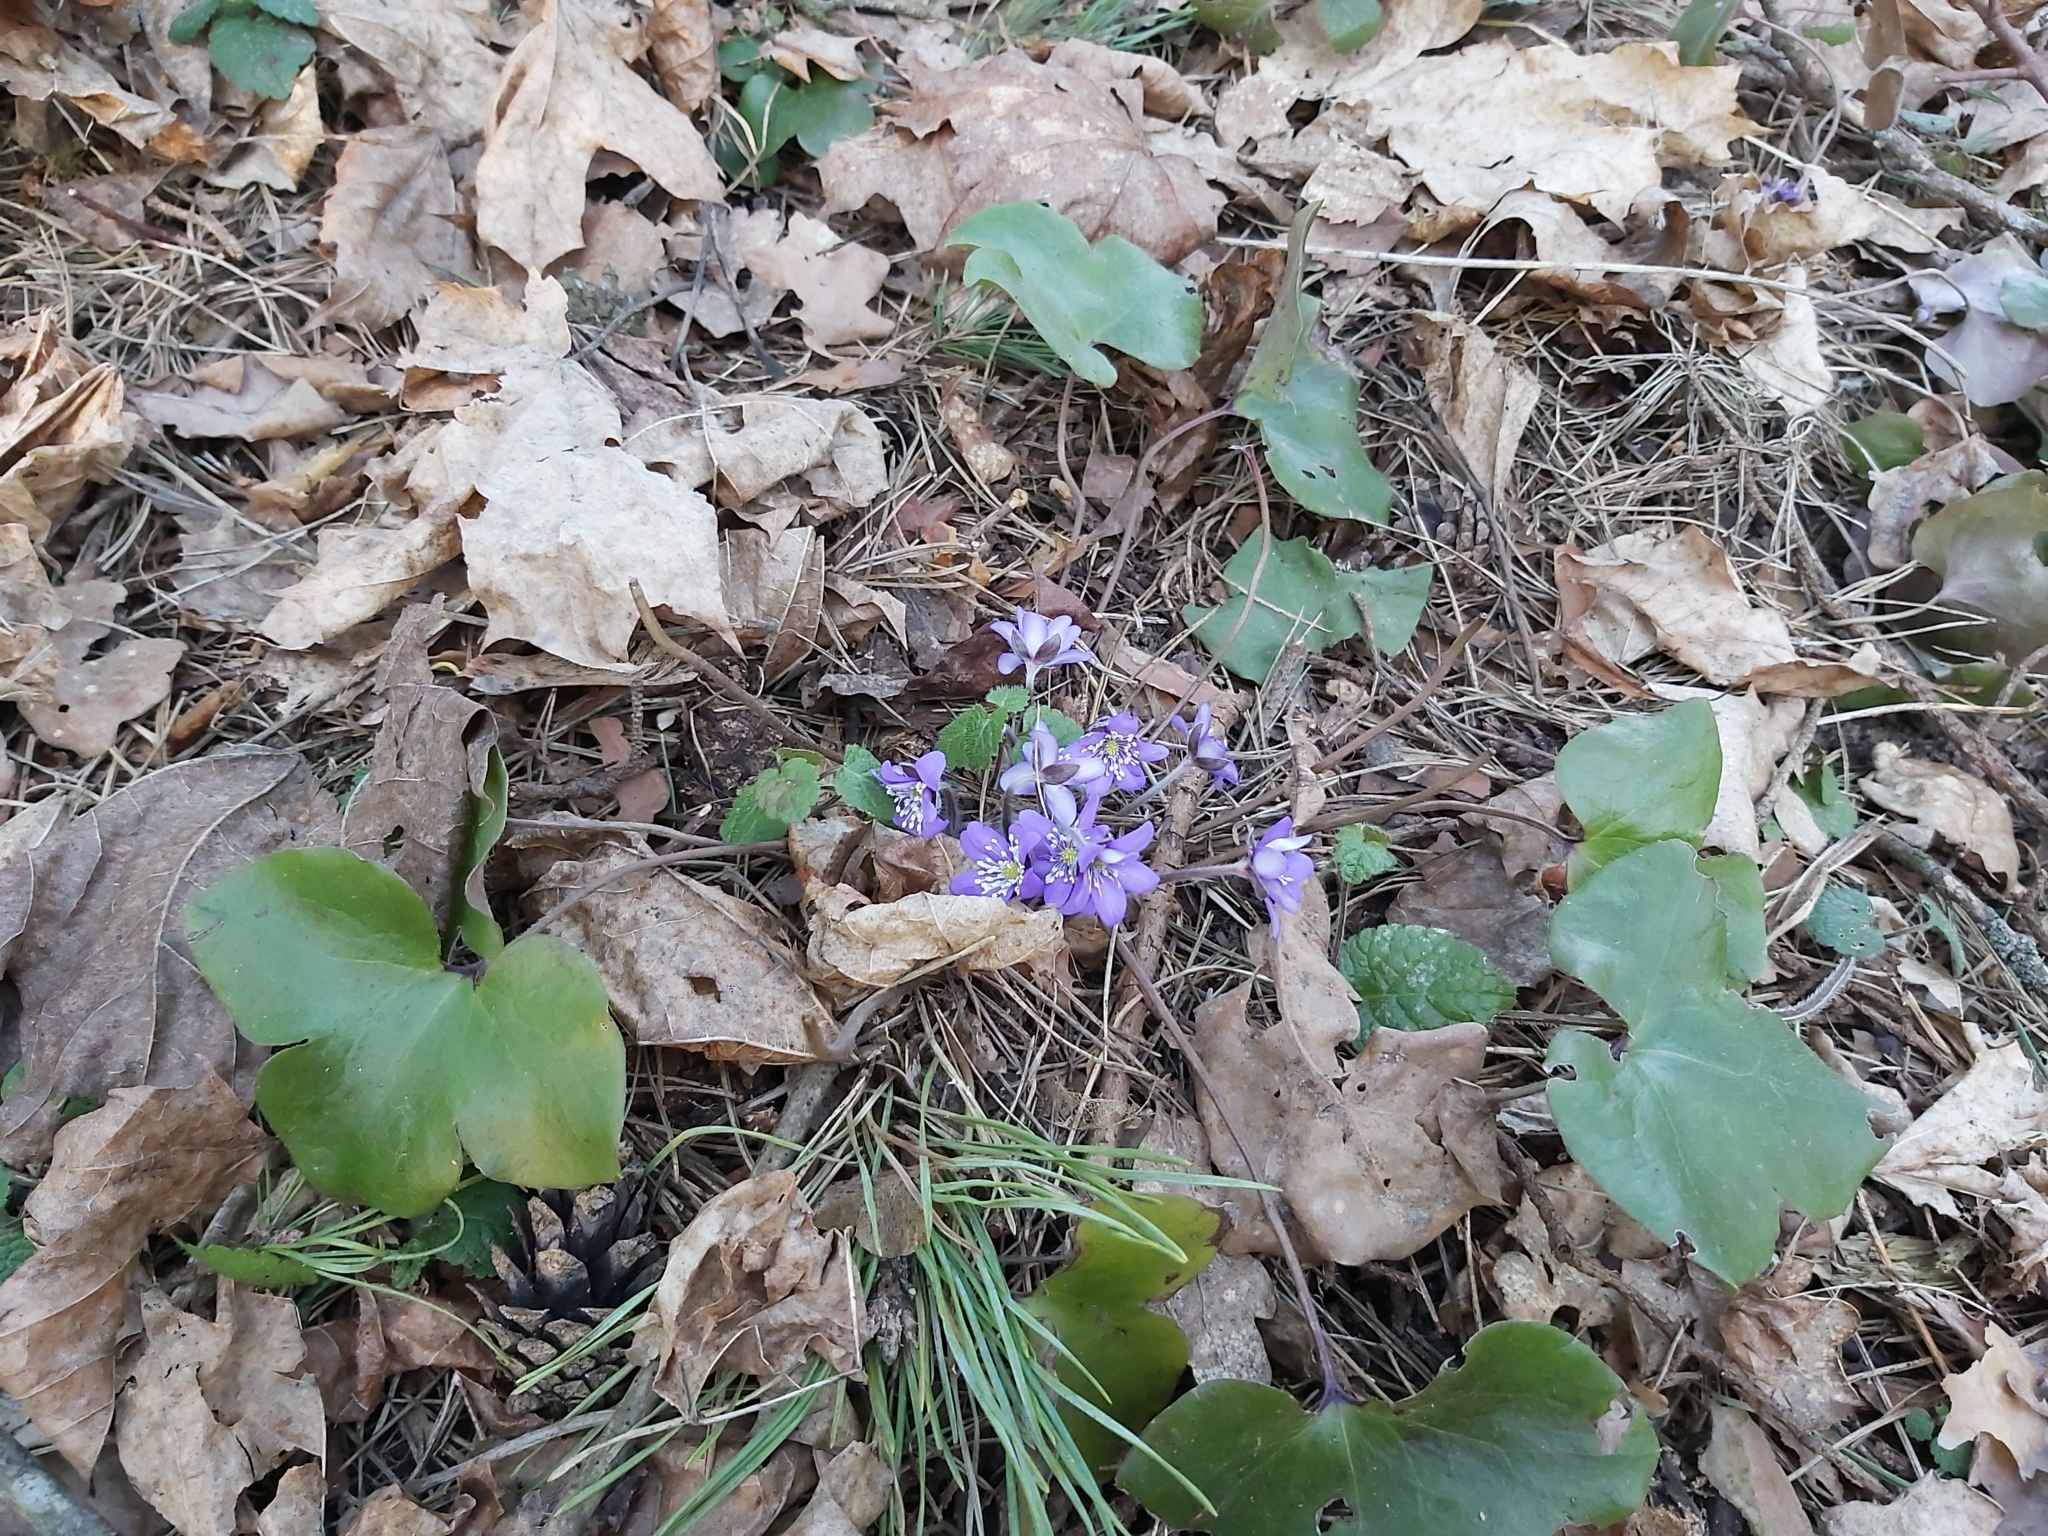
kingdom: Plantae
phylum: Tracheophyta
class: Magnoliopsida
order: Ranunculales
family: Ranunculaceae
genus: Hepatica
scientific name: Hepatica nobilis
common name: Liverleaf
